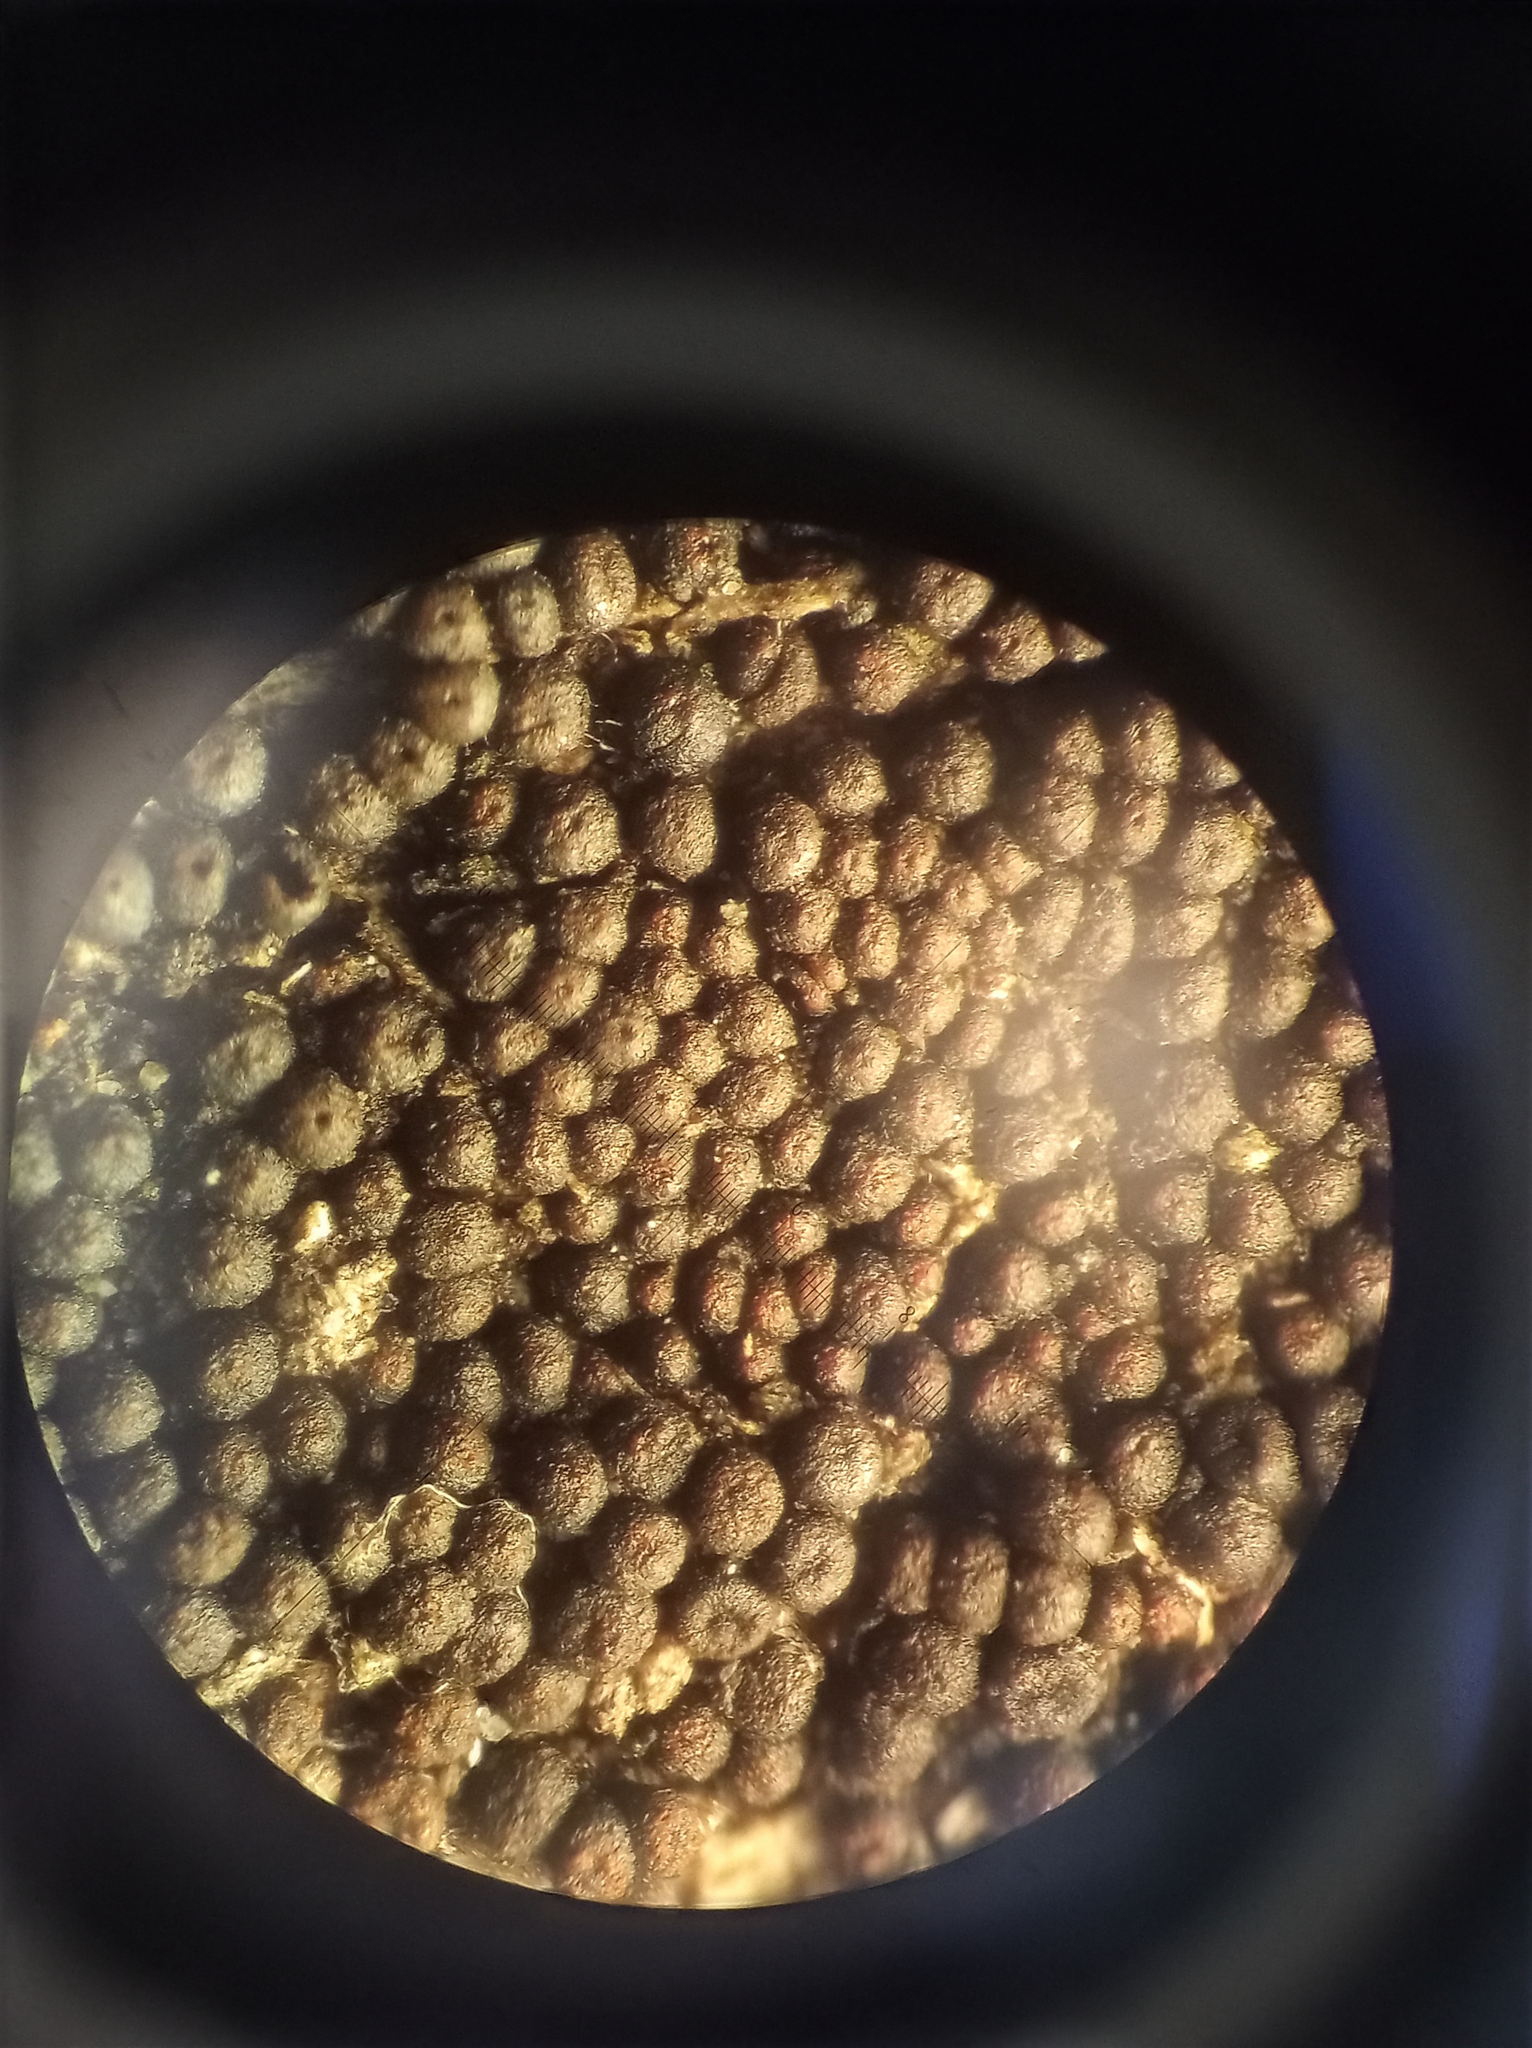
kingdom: Fungi
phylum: Ascomycota
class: Dothideomycetes
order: Pleosporales
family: Melanommataceae
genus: Byssosphaeria
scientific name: Byssosphaeria rhodomphala
